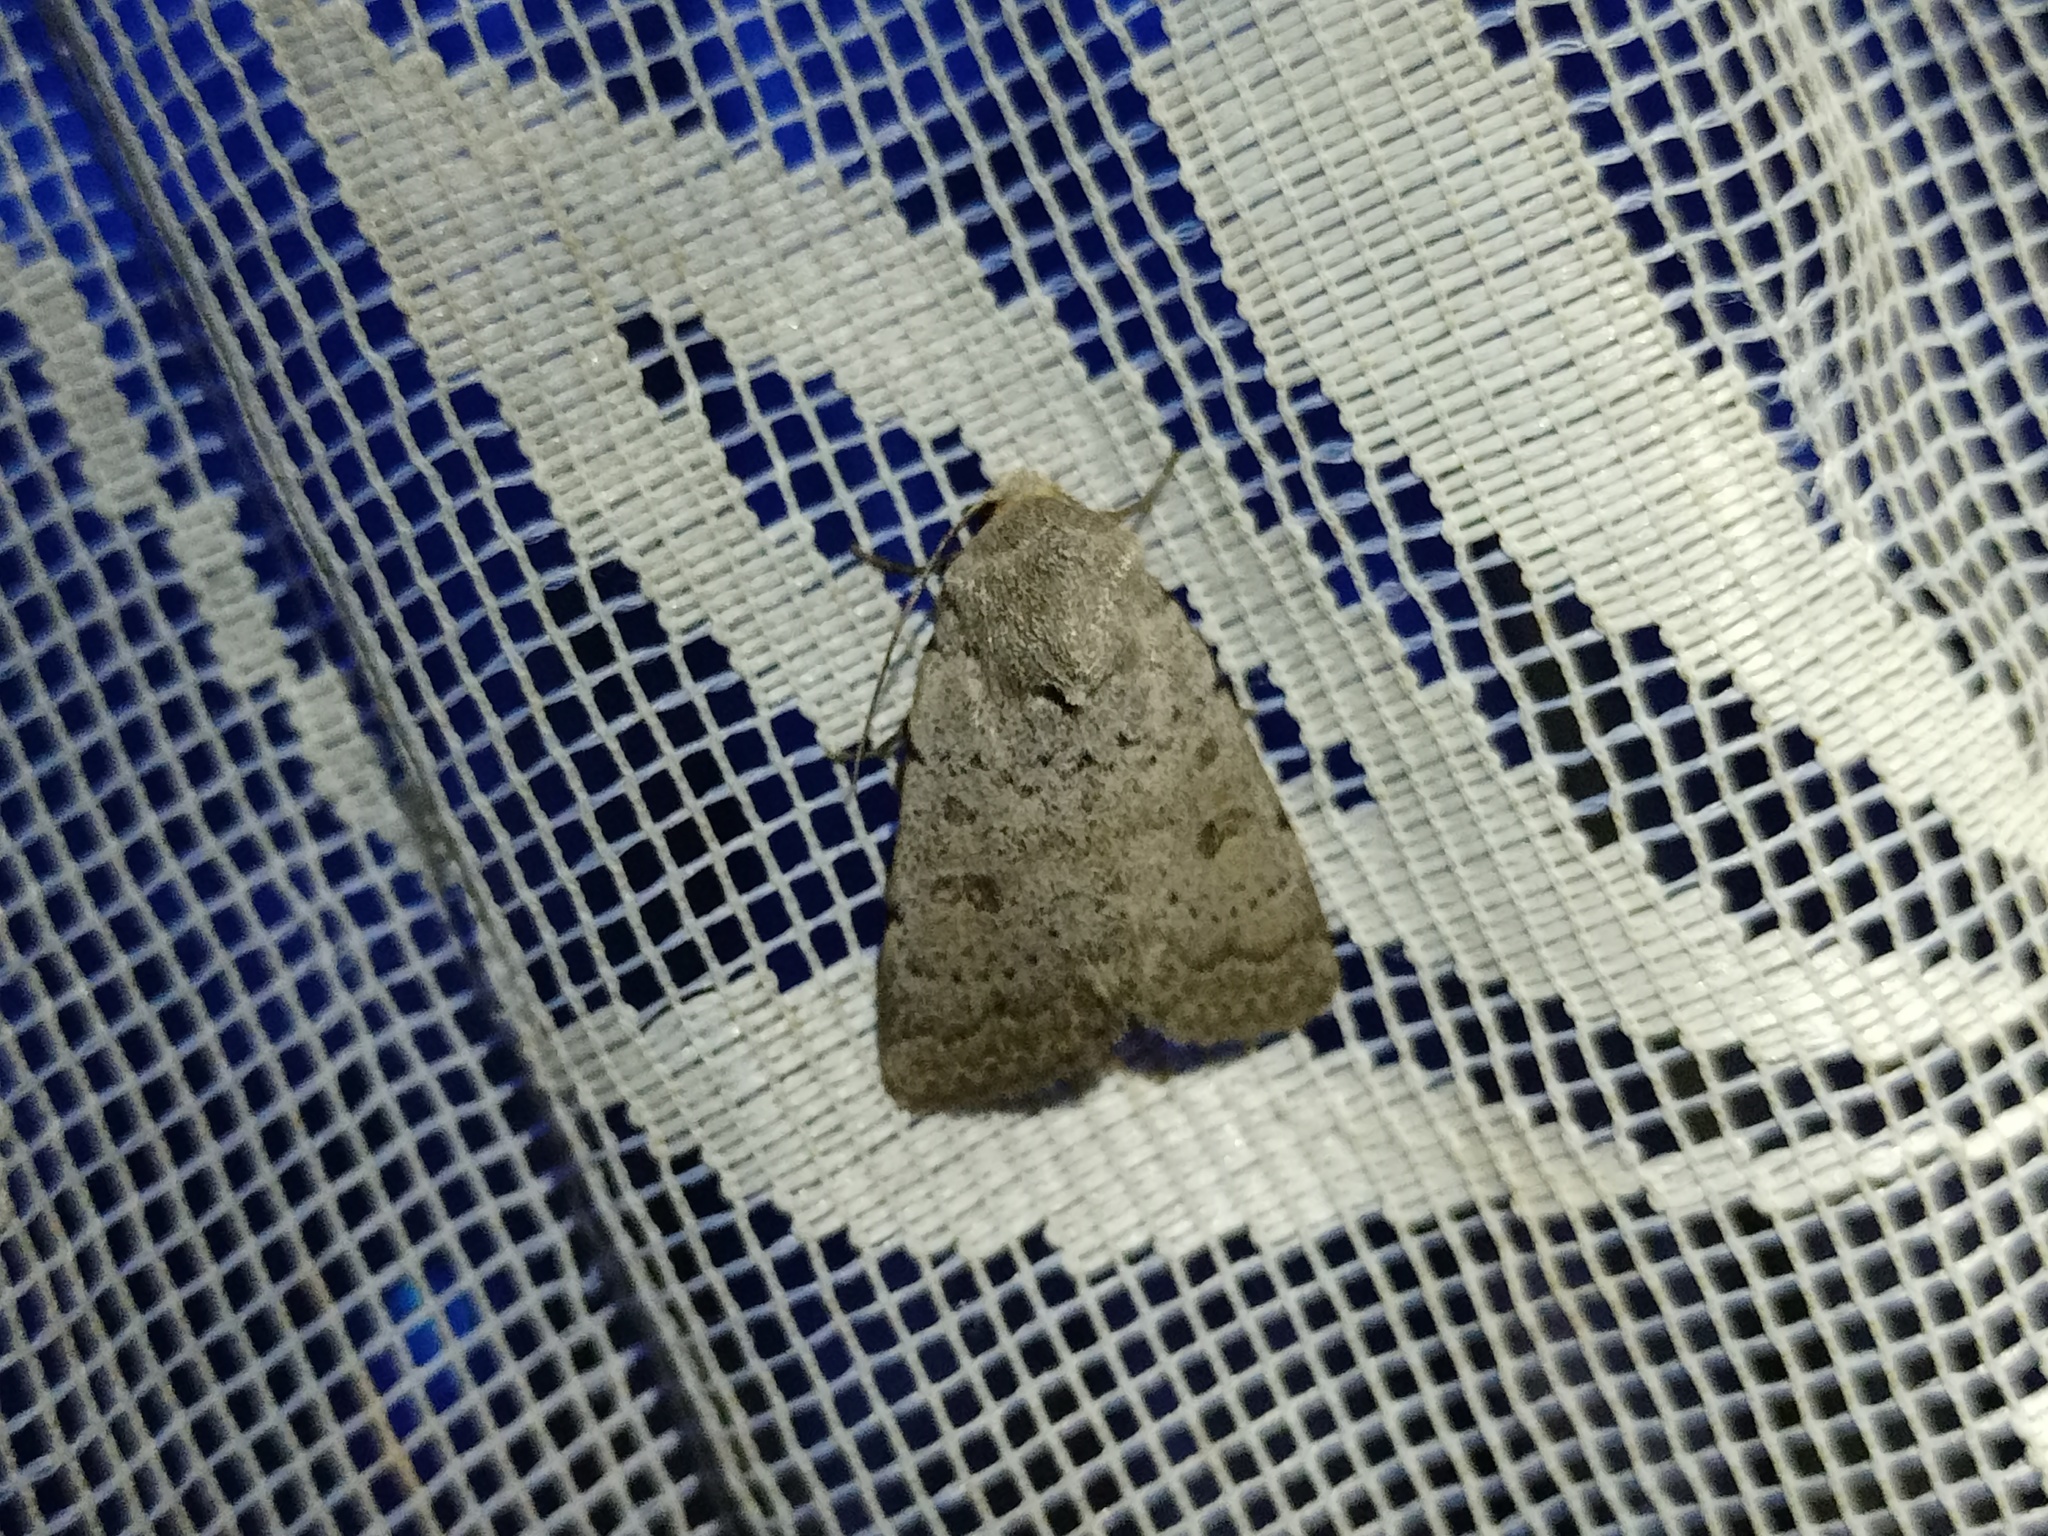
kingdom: Animalia
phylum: Arthropoda
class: Insecta
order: Lepidoptera
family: Noctuidae
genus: Hoplodrina
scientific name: Hoplodrina respersa
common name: Sprinkled rustic
